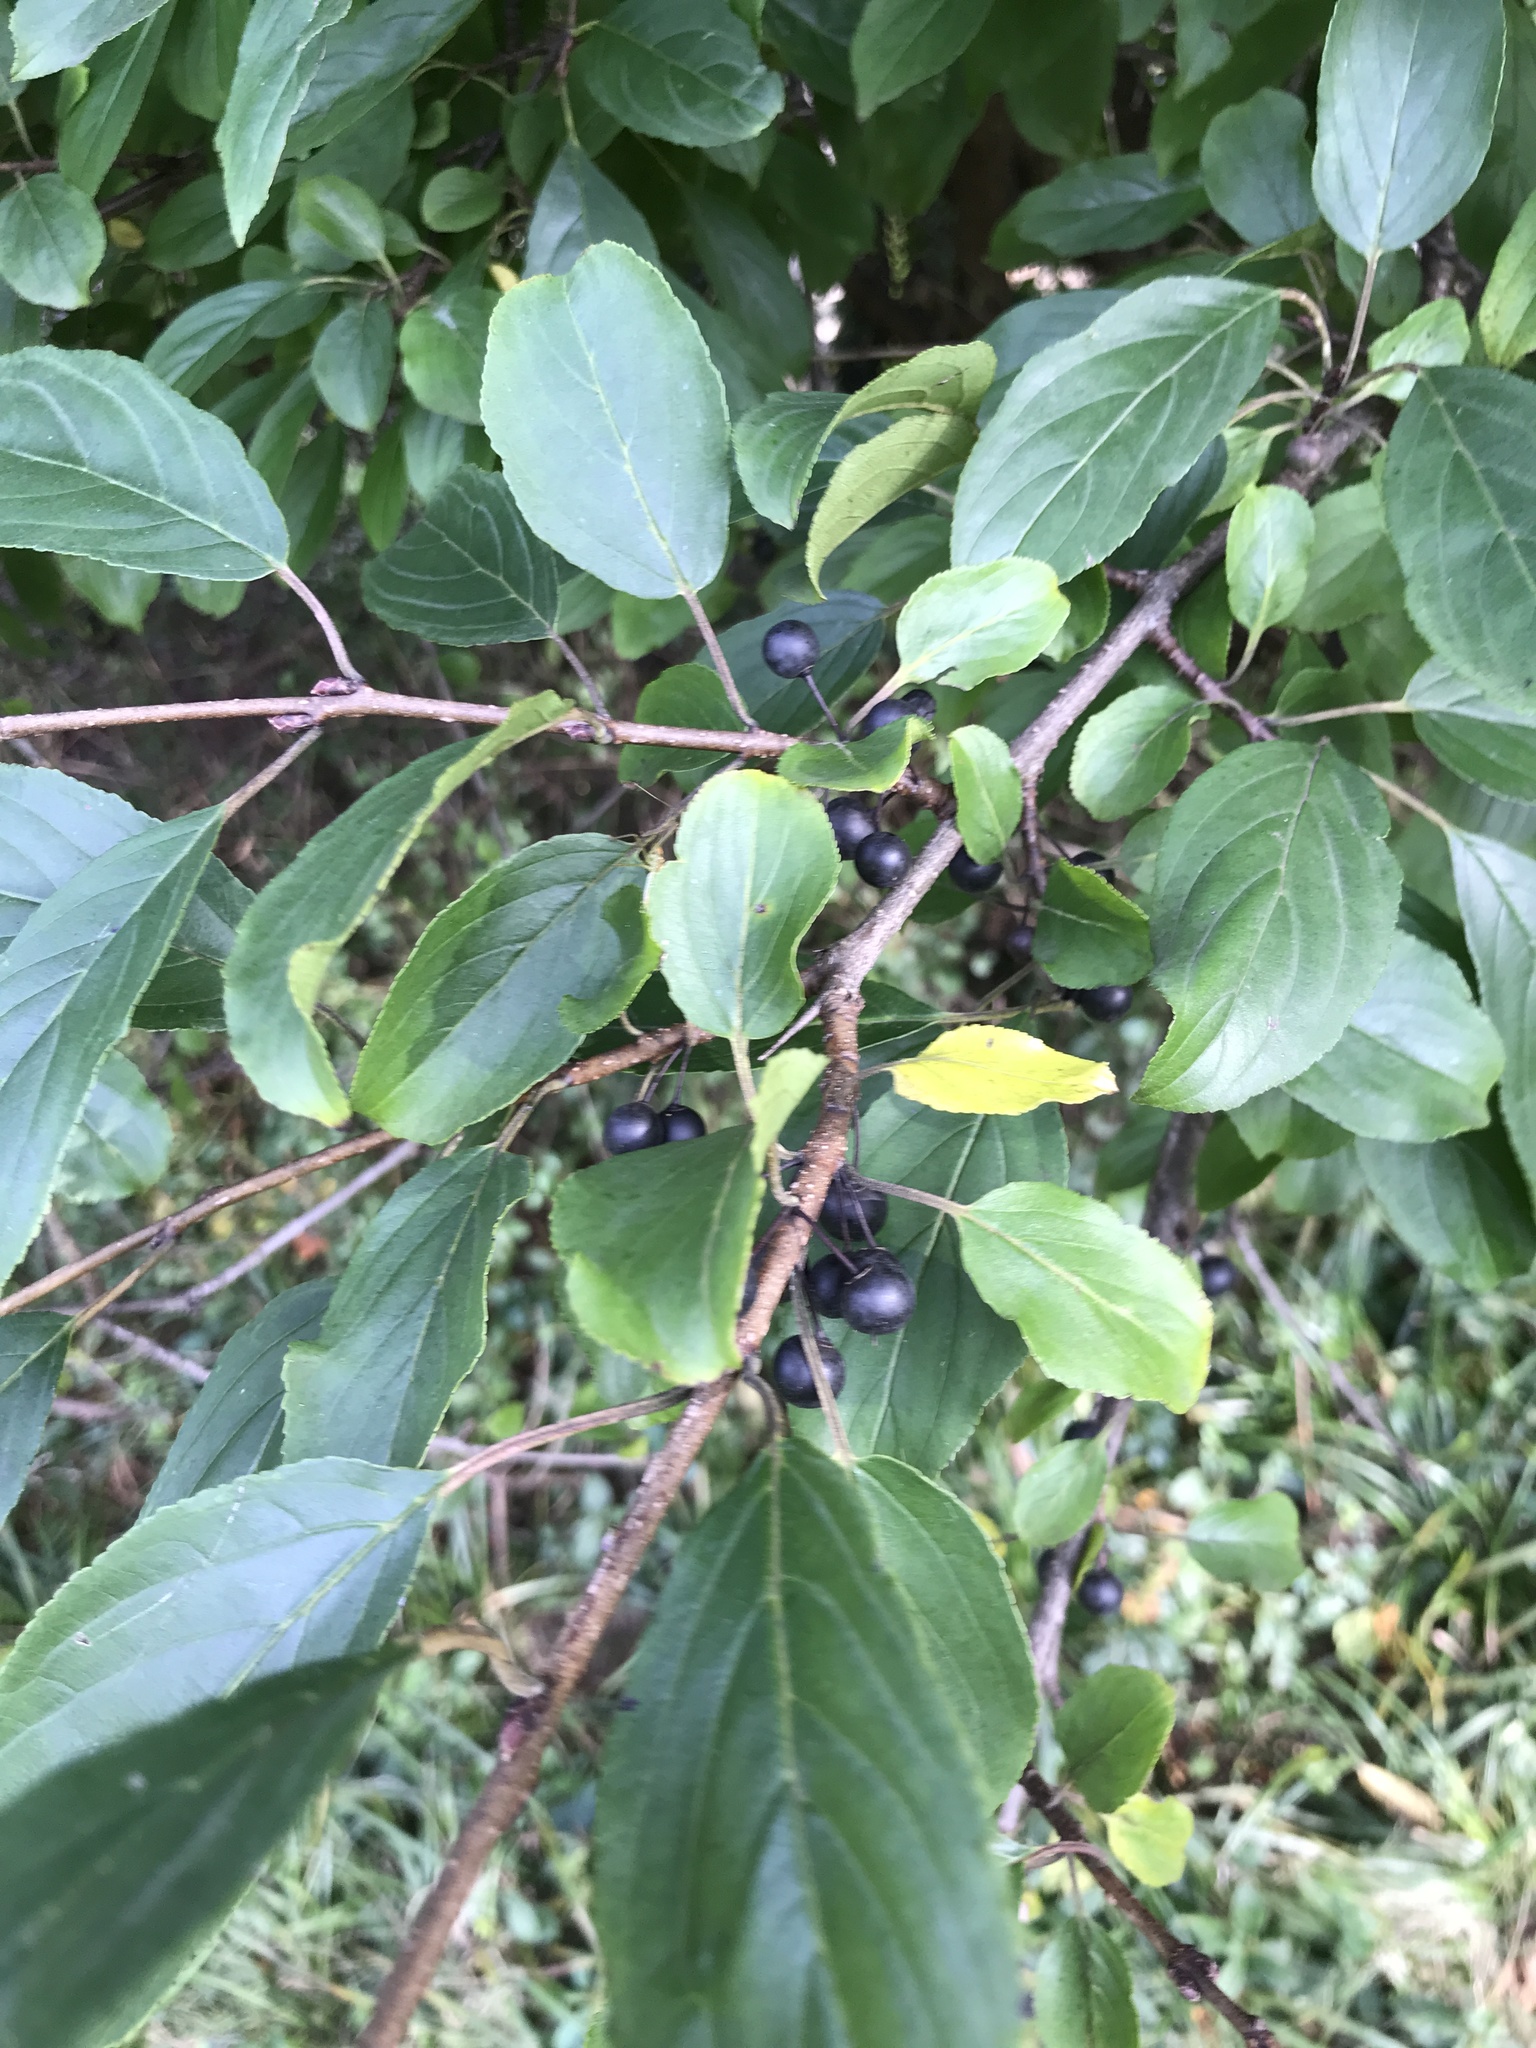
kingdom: Plantae
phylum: Tracheophyta
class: Magnoliopsida
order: Rosales
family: Rhamnaceae
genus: Rhamnus
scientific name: Rhamnus cathartica
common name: Common buckthorn
